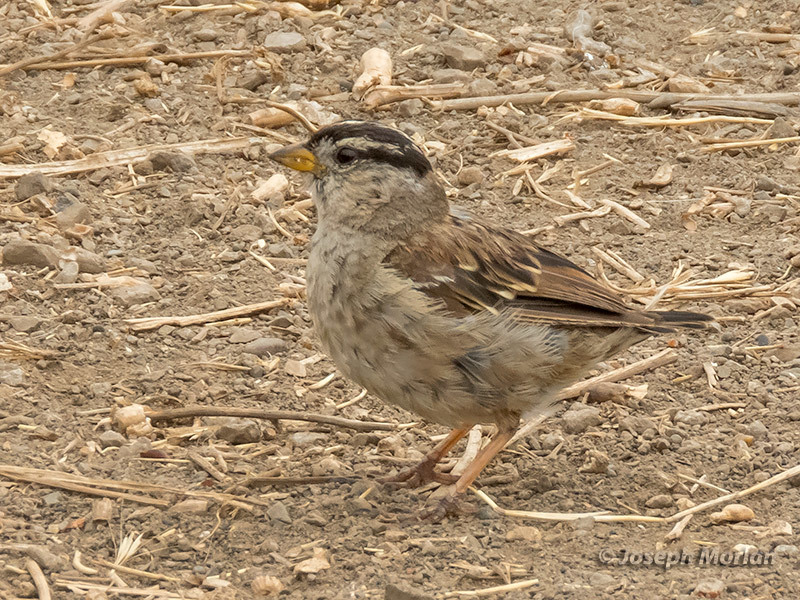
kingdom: Animalia
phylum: Chordata
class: Aves
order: Passeriformes
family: Passerellidae
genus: Zonotrichia
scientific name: Zonotrichia leucophrys
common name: White-crowned sparrow
